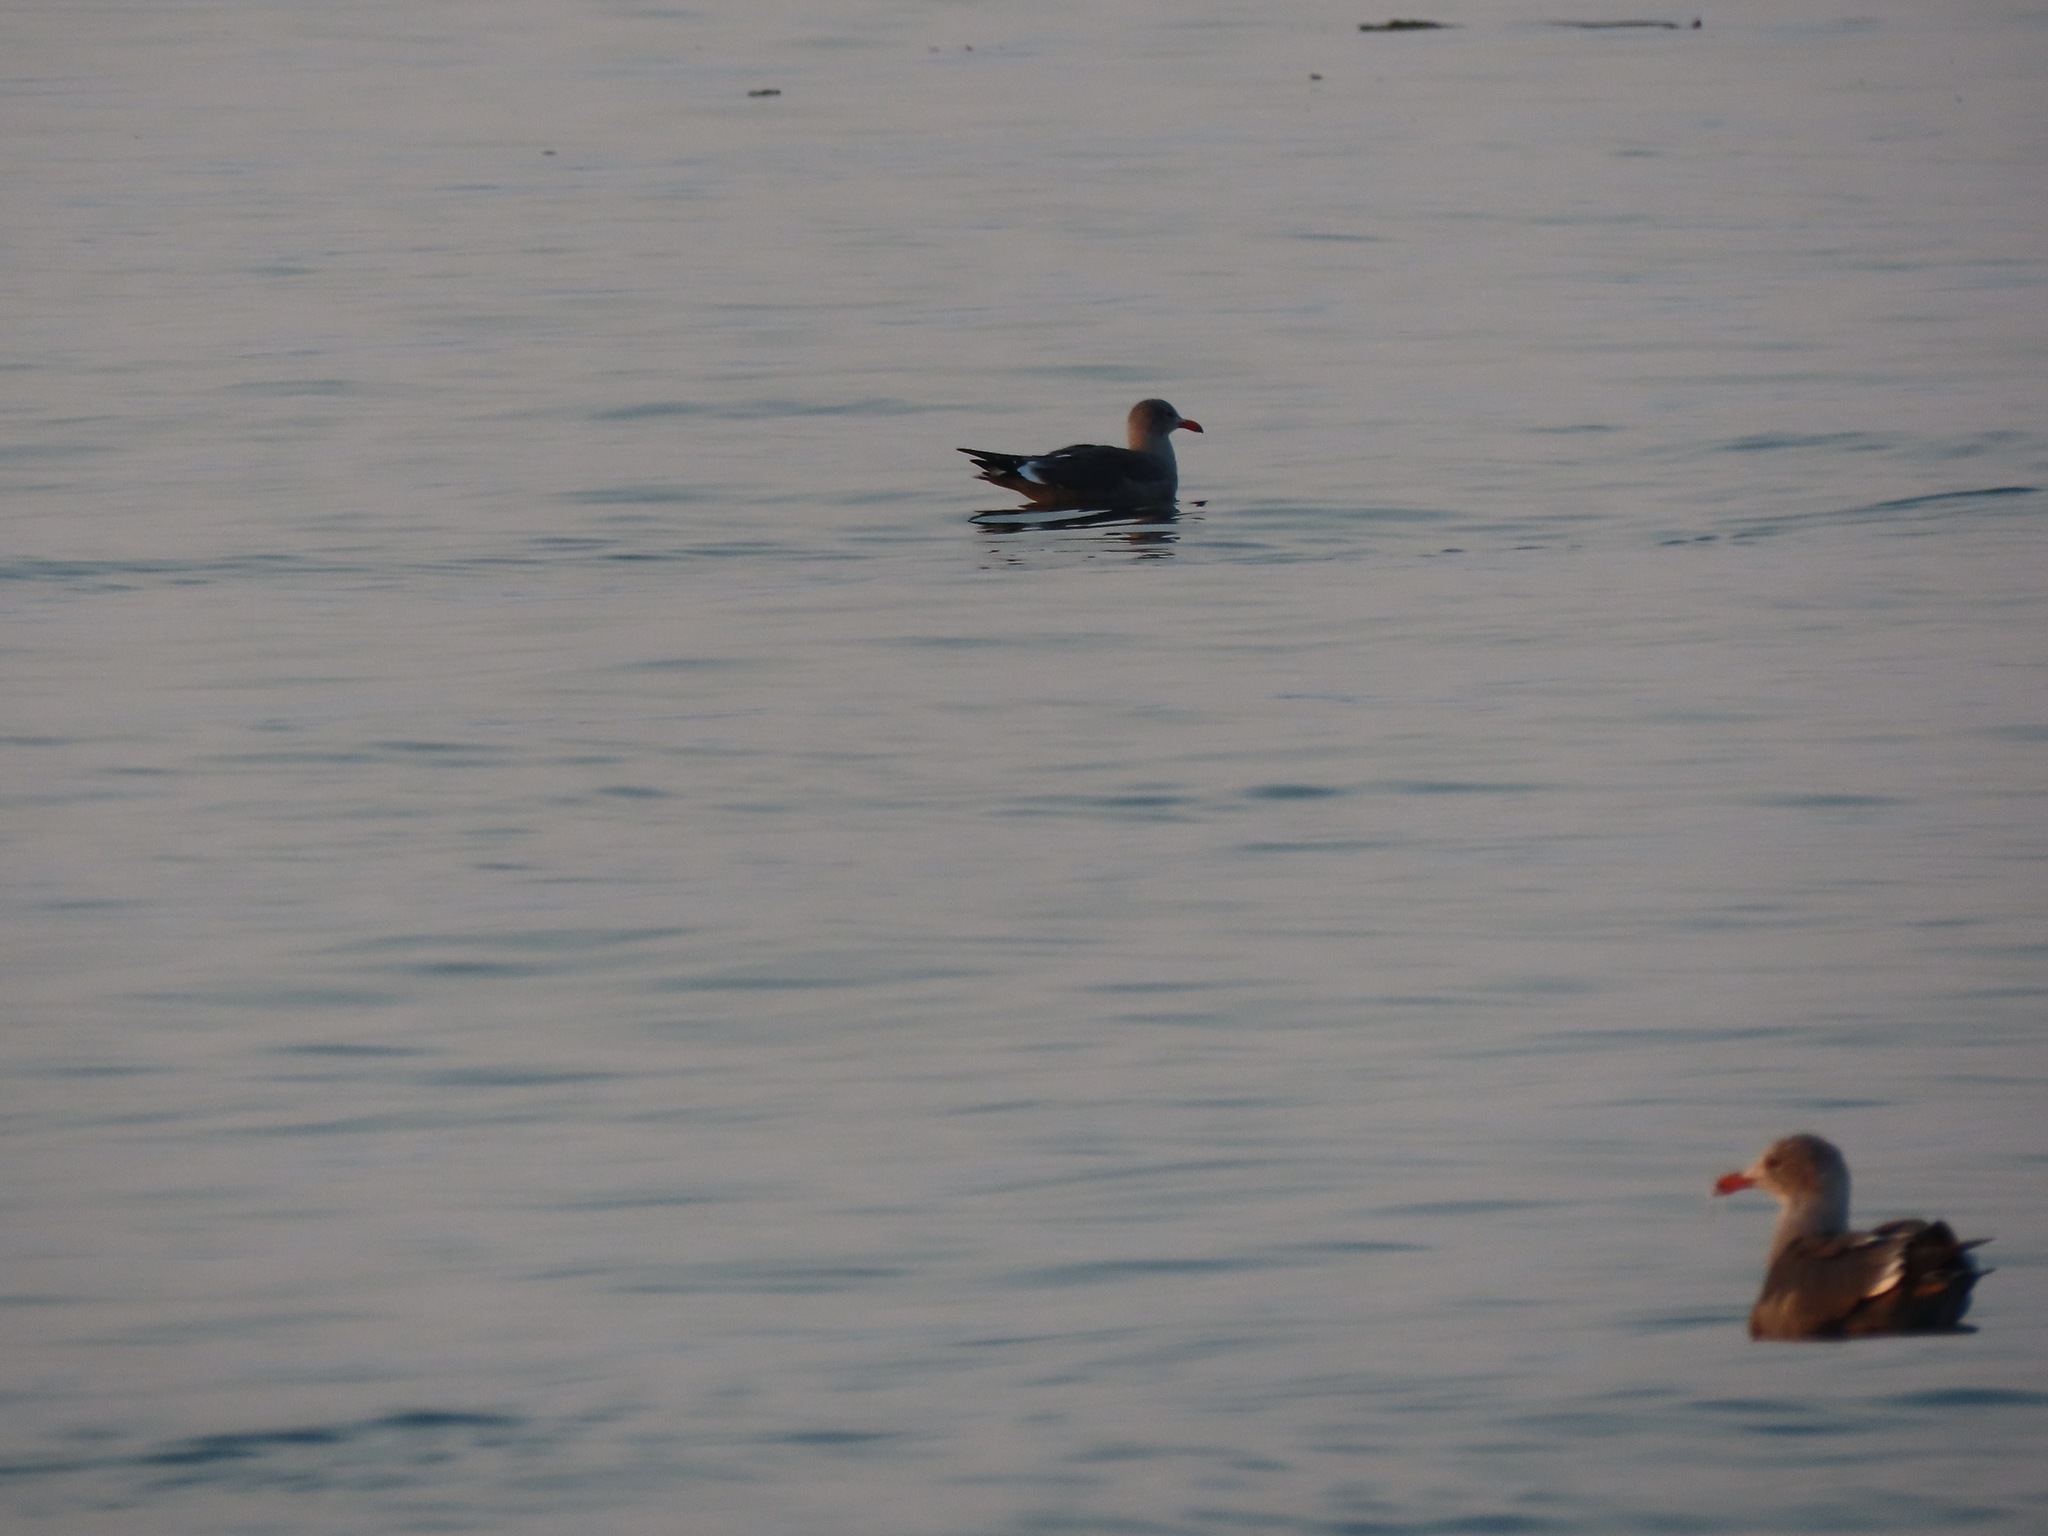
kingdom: Animalia
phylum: Chordata
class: Aves
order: Charadriiformes
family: Laridae
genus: Larus
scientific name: Larus heermanni
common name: Heermann's gull
